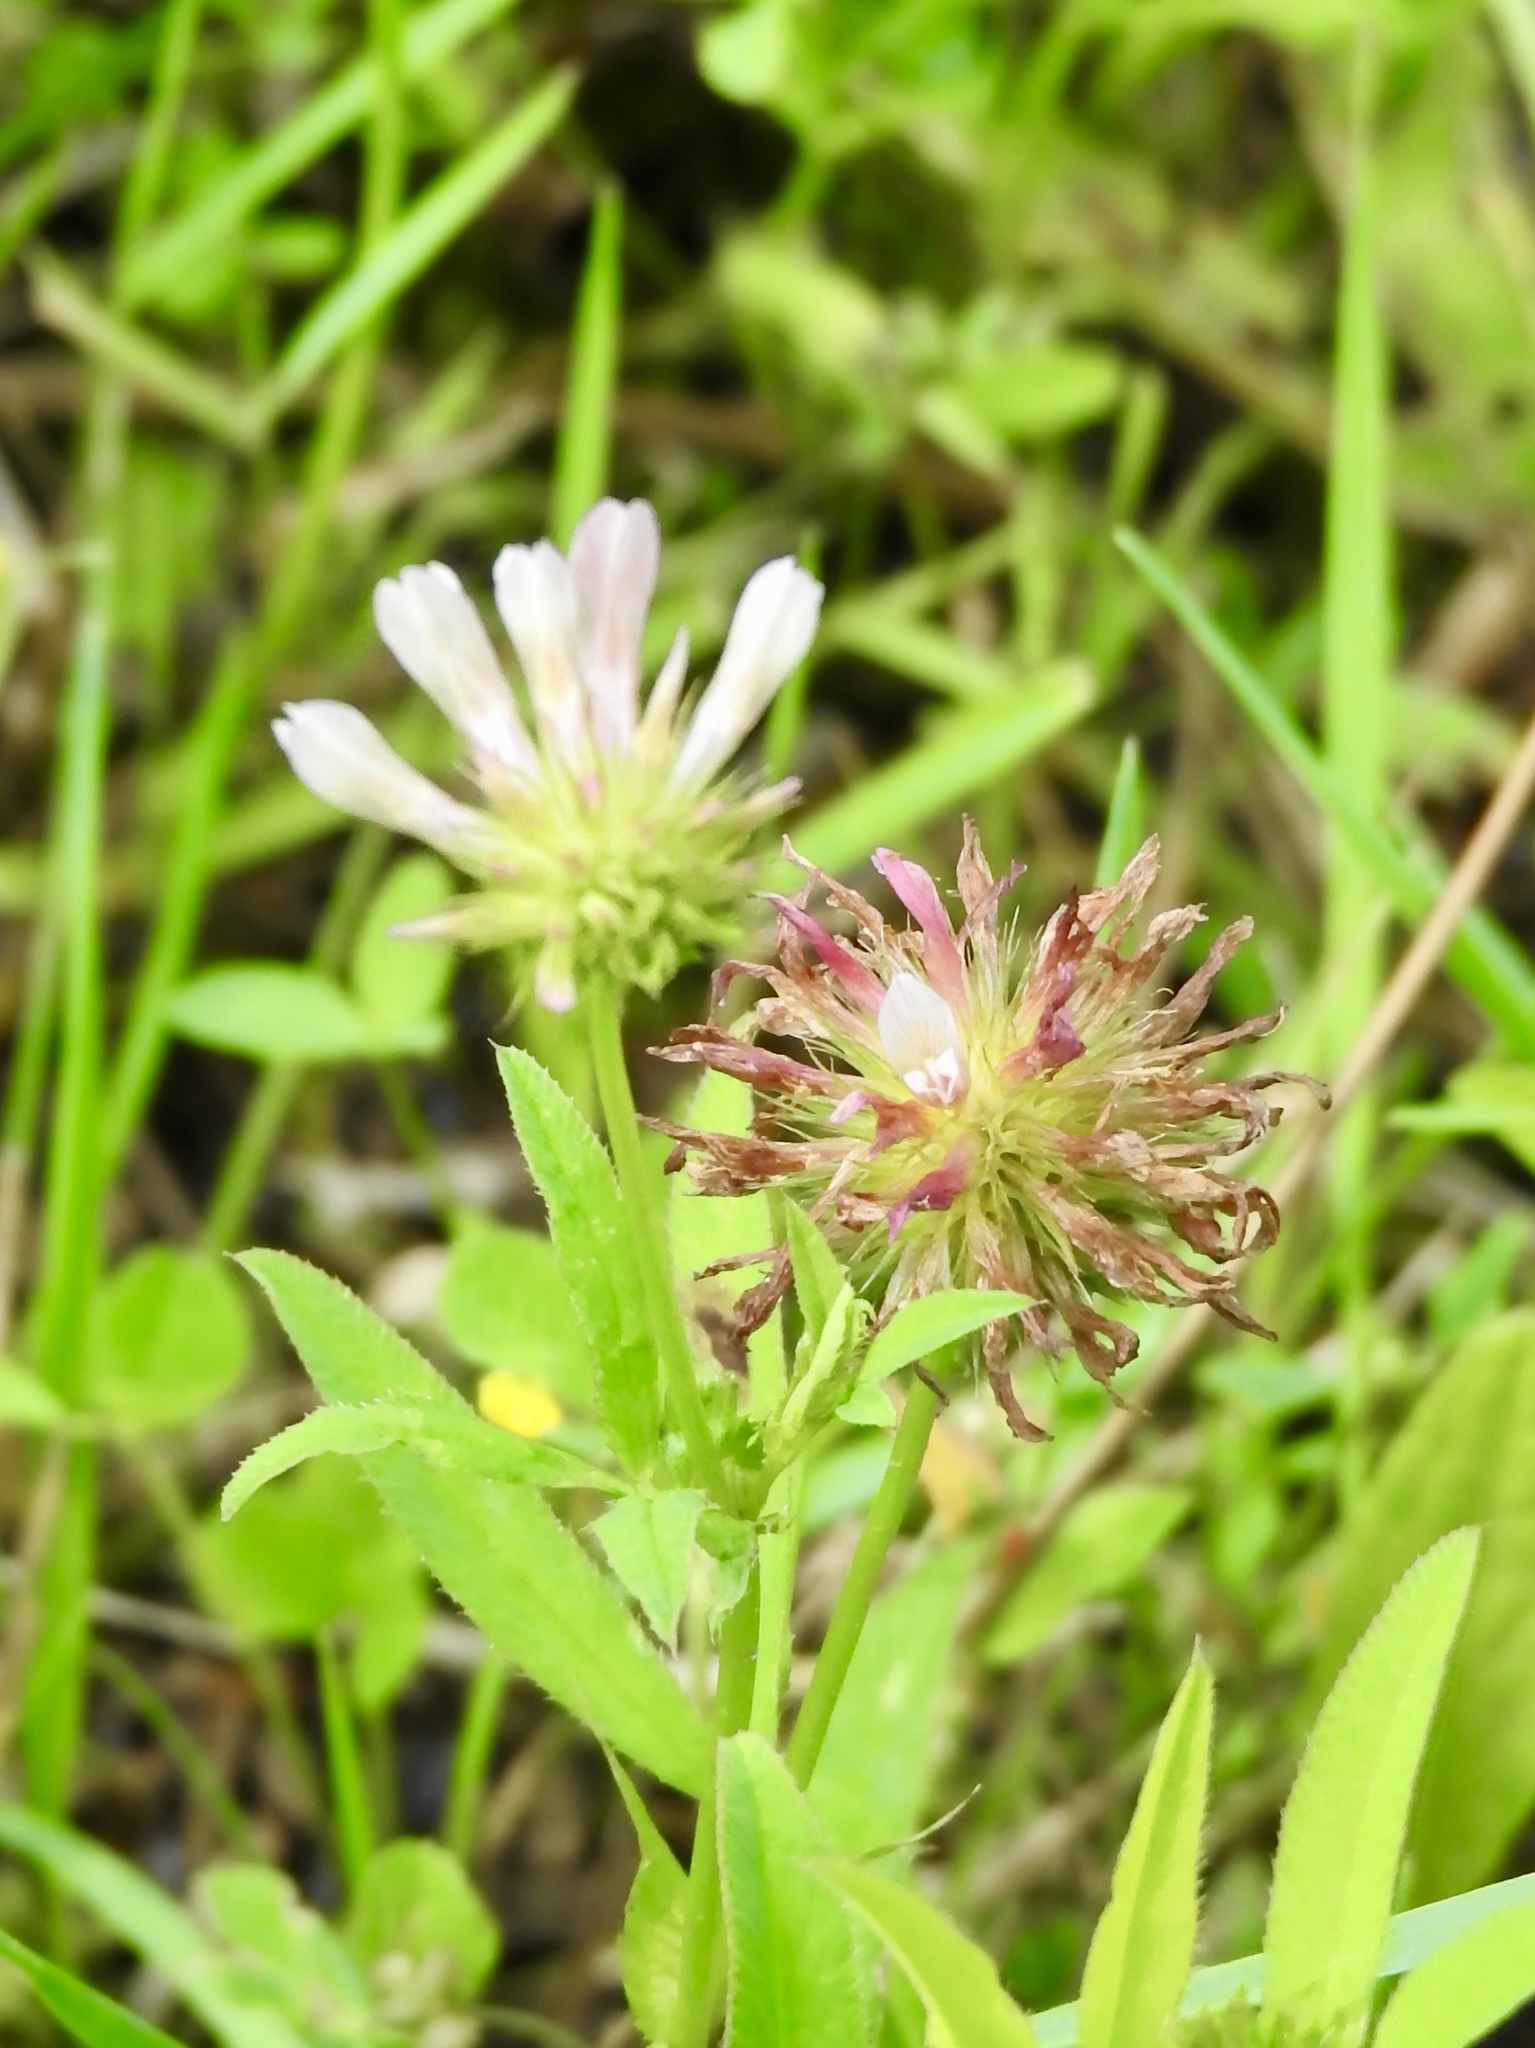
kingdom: Plantae
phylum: Tracheophyta
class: Magnoliopsida
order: Fabales
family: Fabaceae
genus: Trifolium
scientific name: Trifolium wormskioldii
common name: Springbank clover
